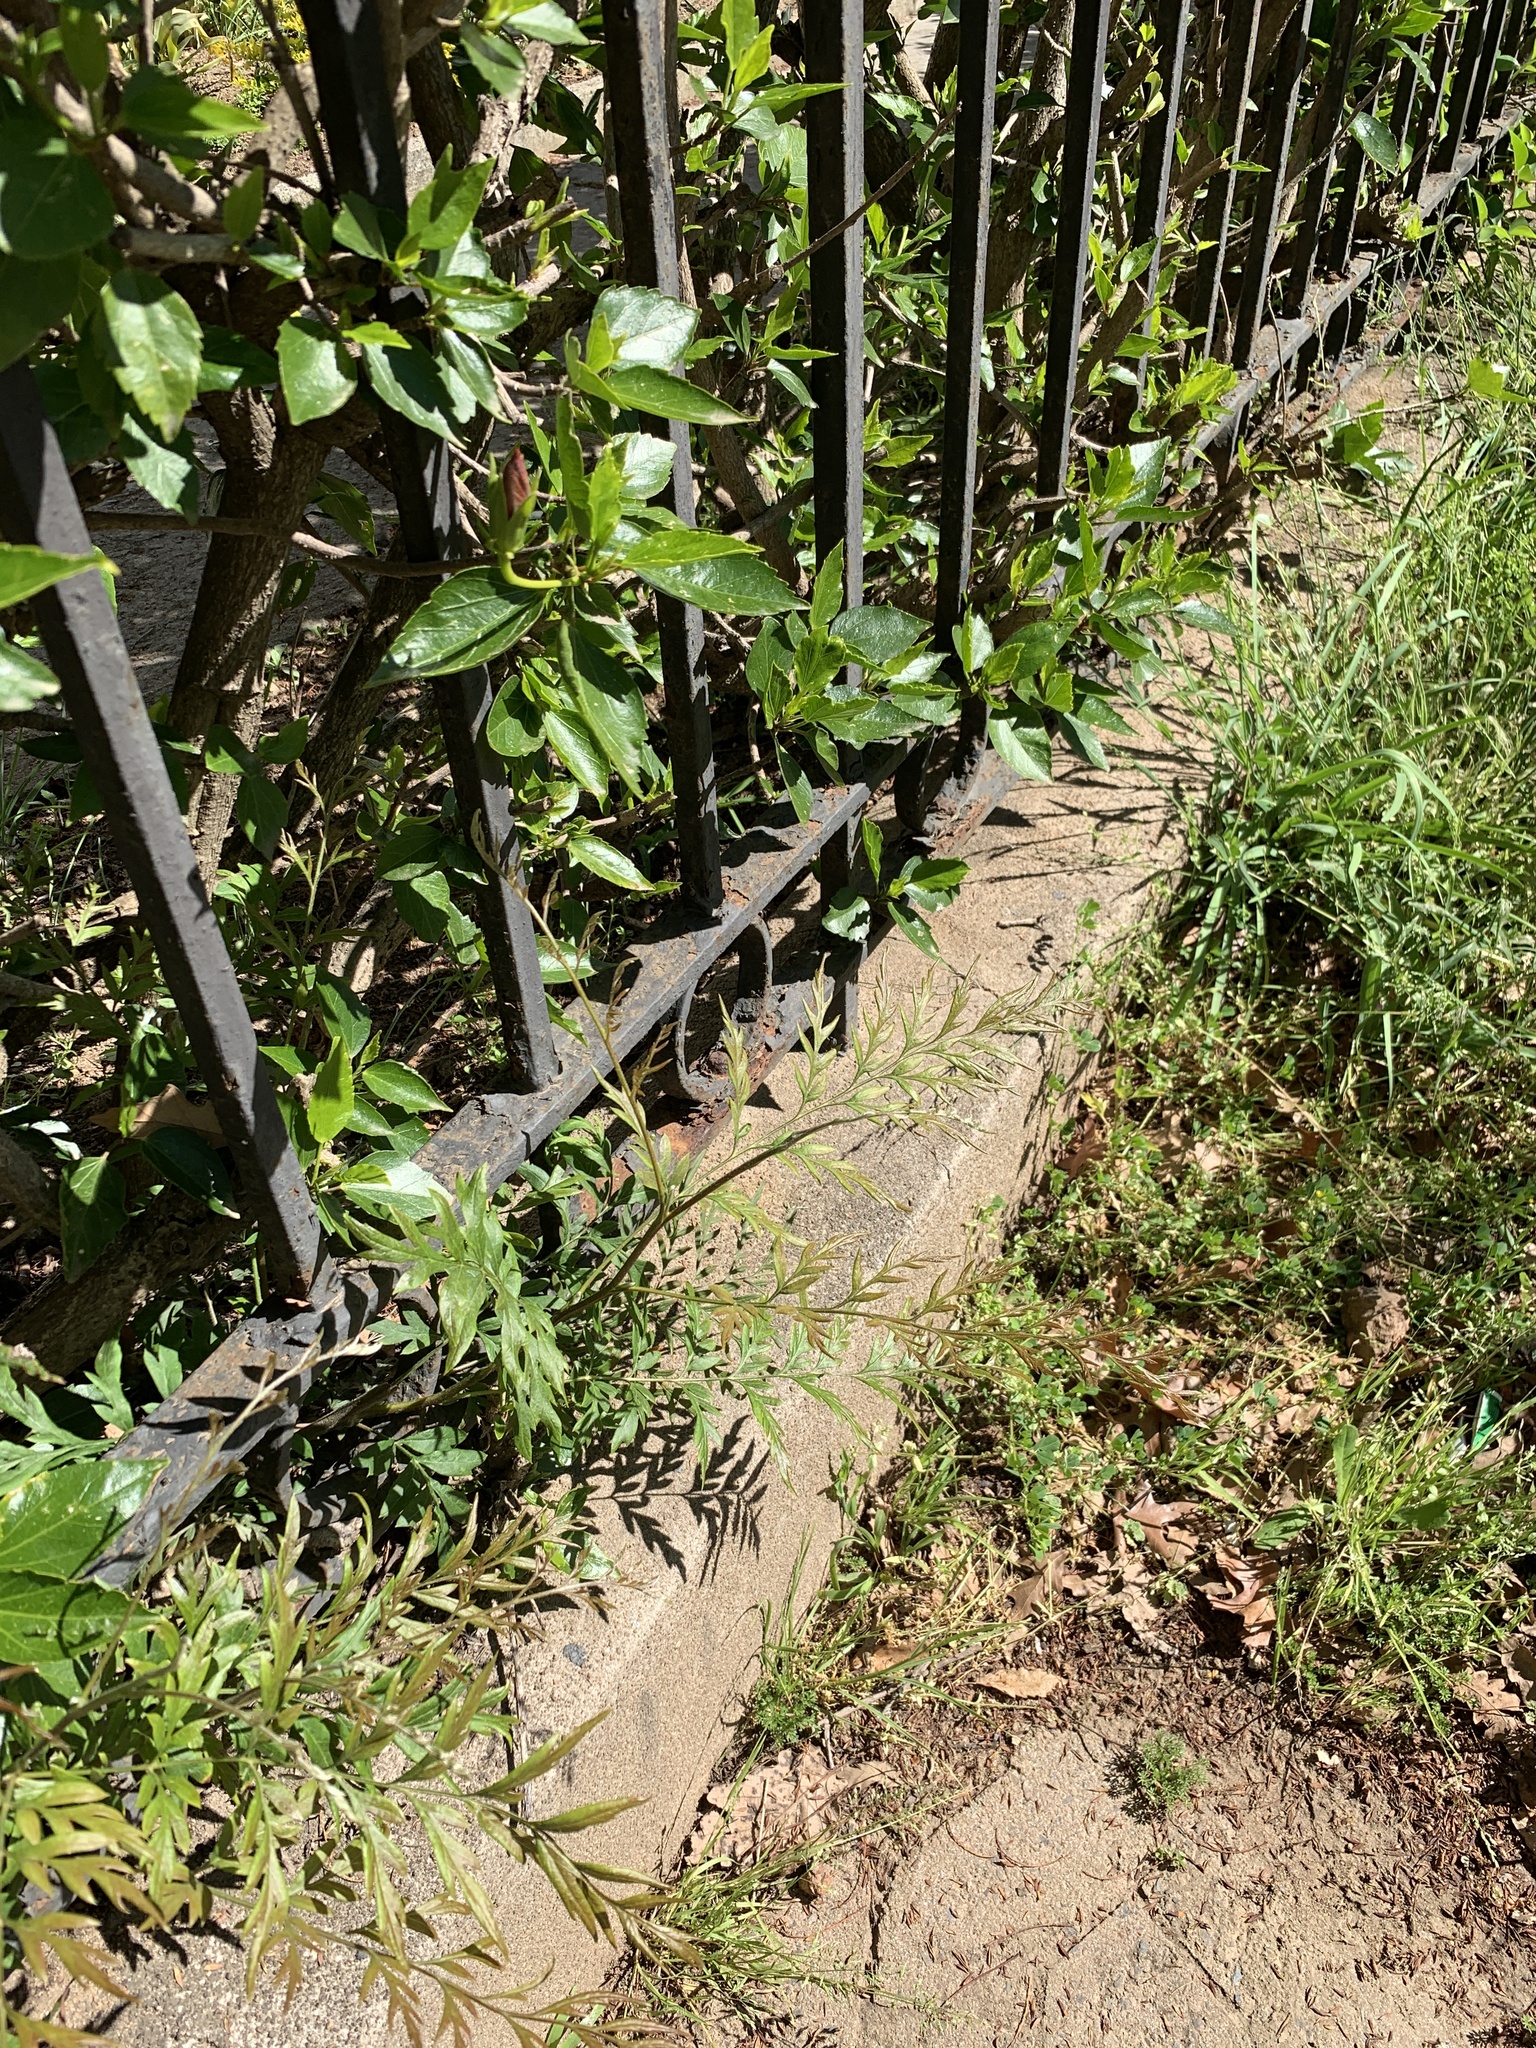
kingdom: Plantae
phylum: Tracheophyta
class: Magnoliopsida
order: Proteales
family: Proteaceae
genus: Grevillea
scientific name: Grevillea robusta
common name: Silkoak
